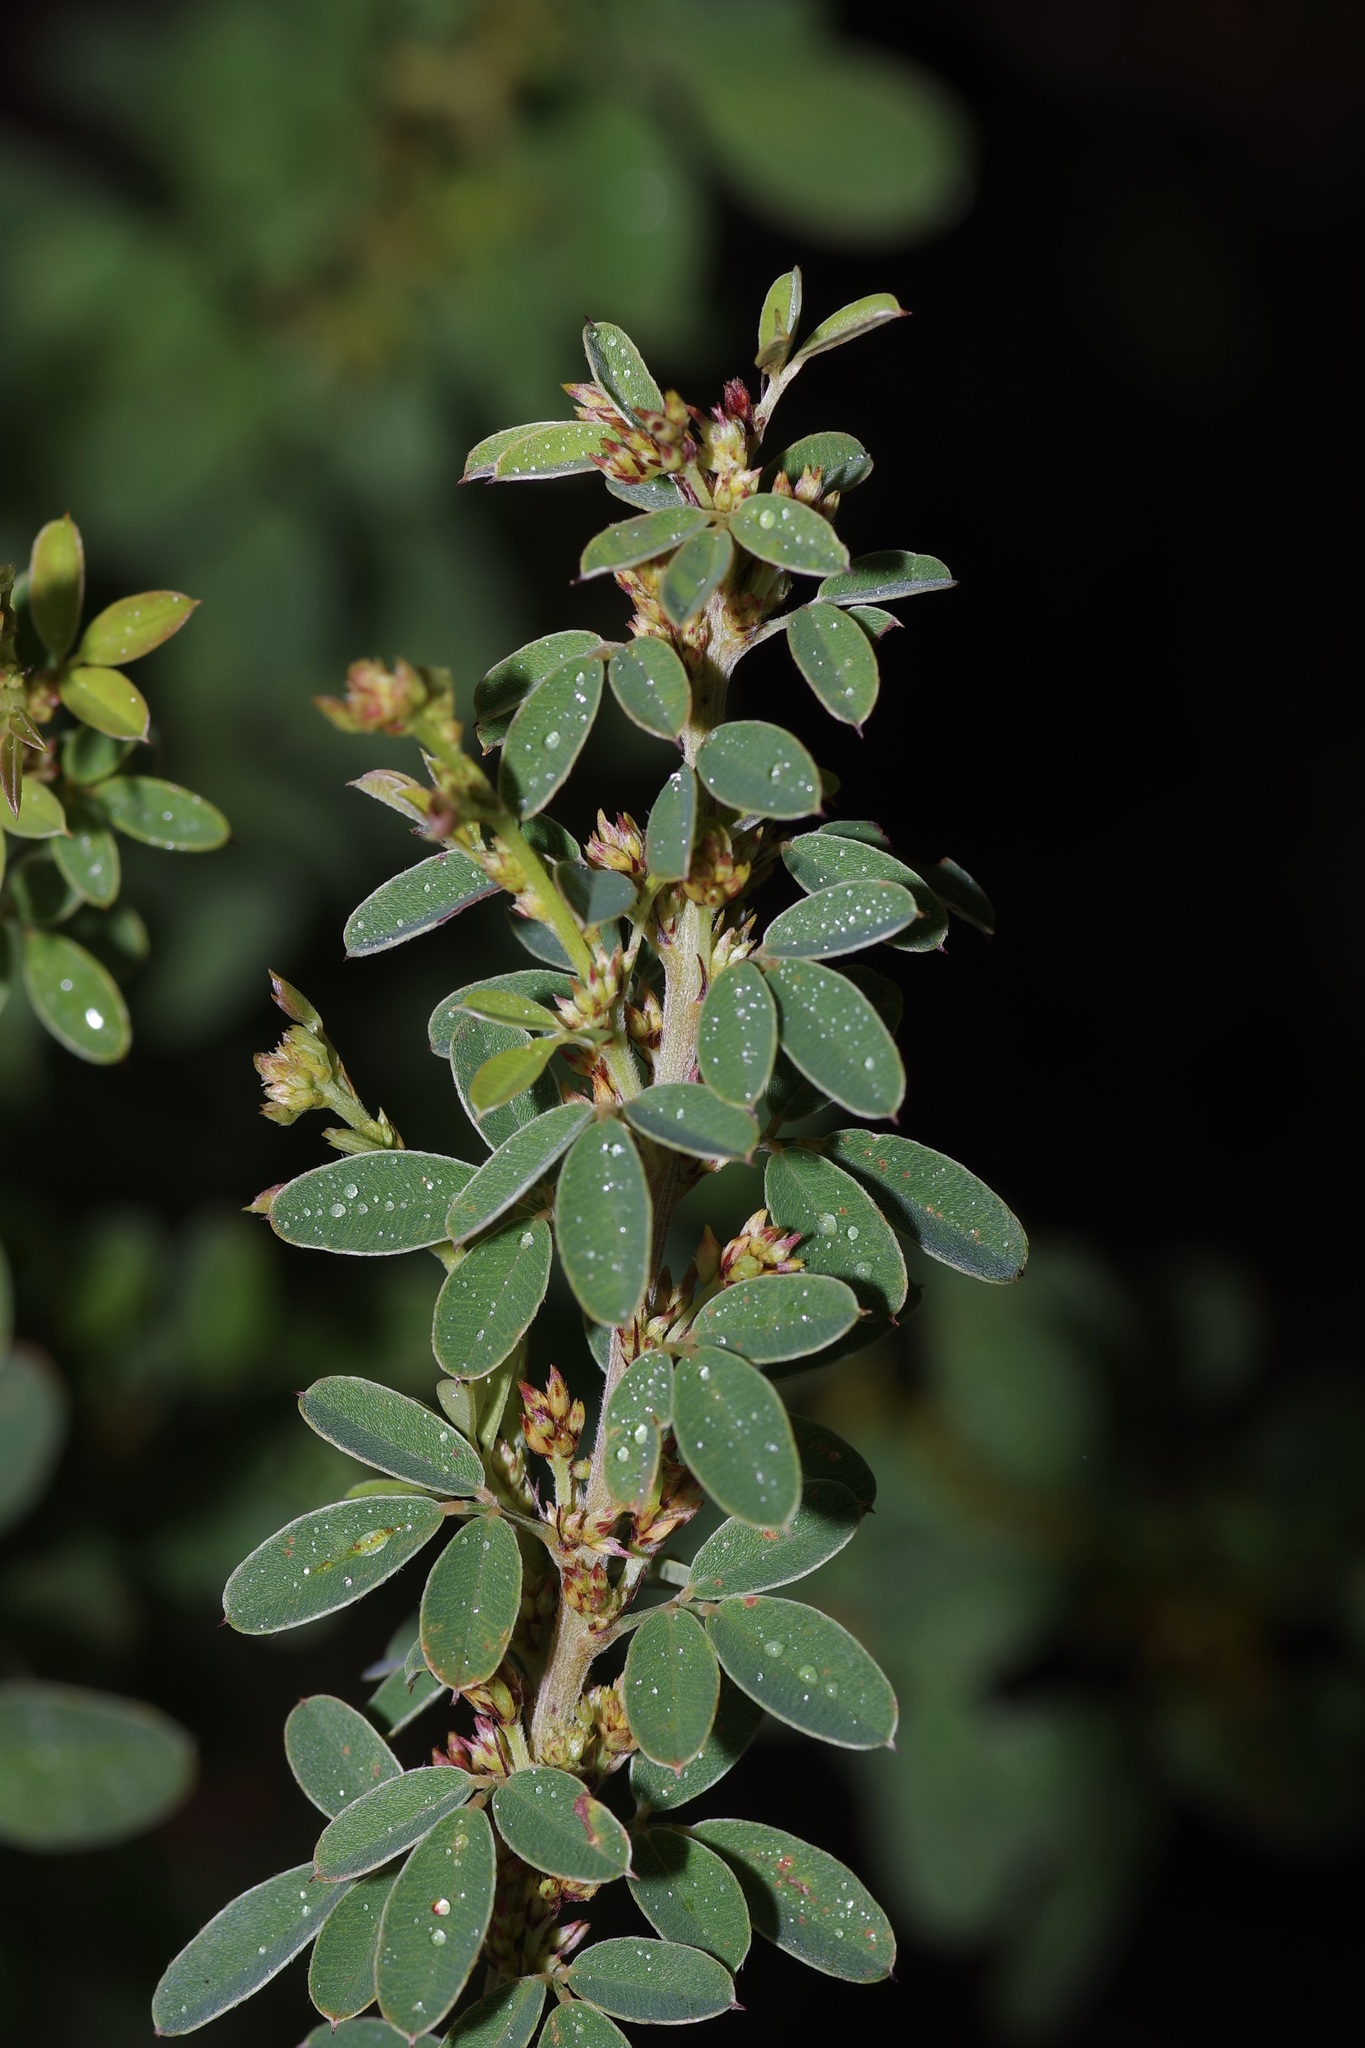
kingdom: Plantae
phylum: Tracheophyta
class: Magnoliopsida
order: Fabales
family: Fabaceae
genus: Lespedeza
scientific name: Lespedeza virginica
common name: Slender bush-clover
